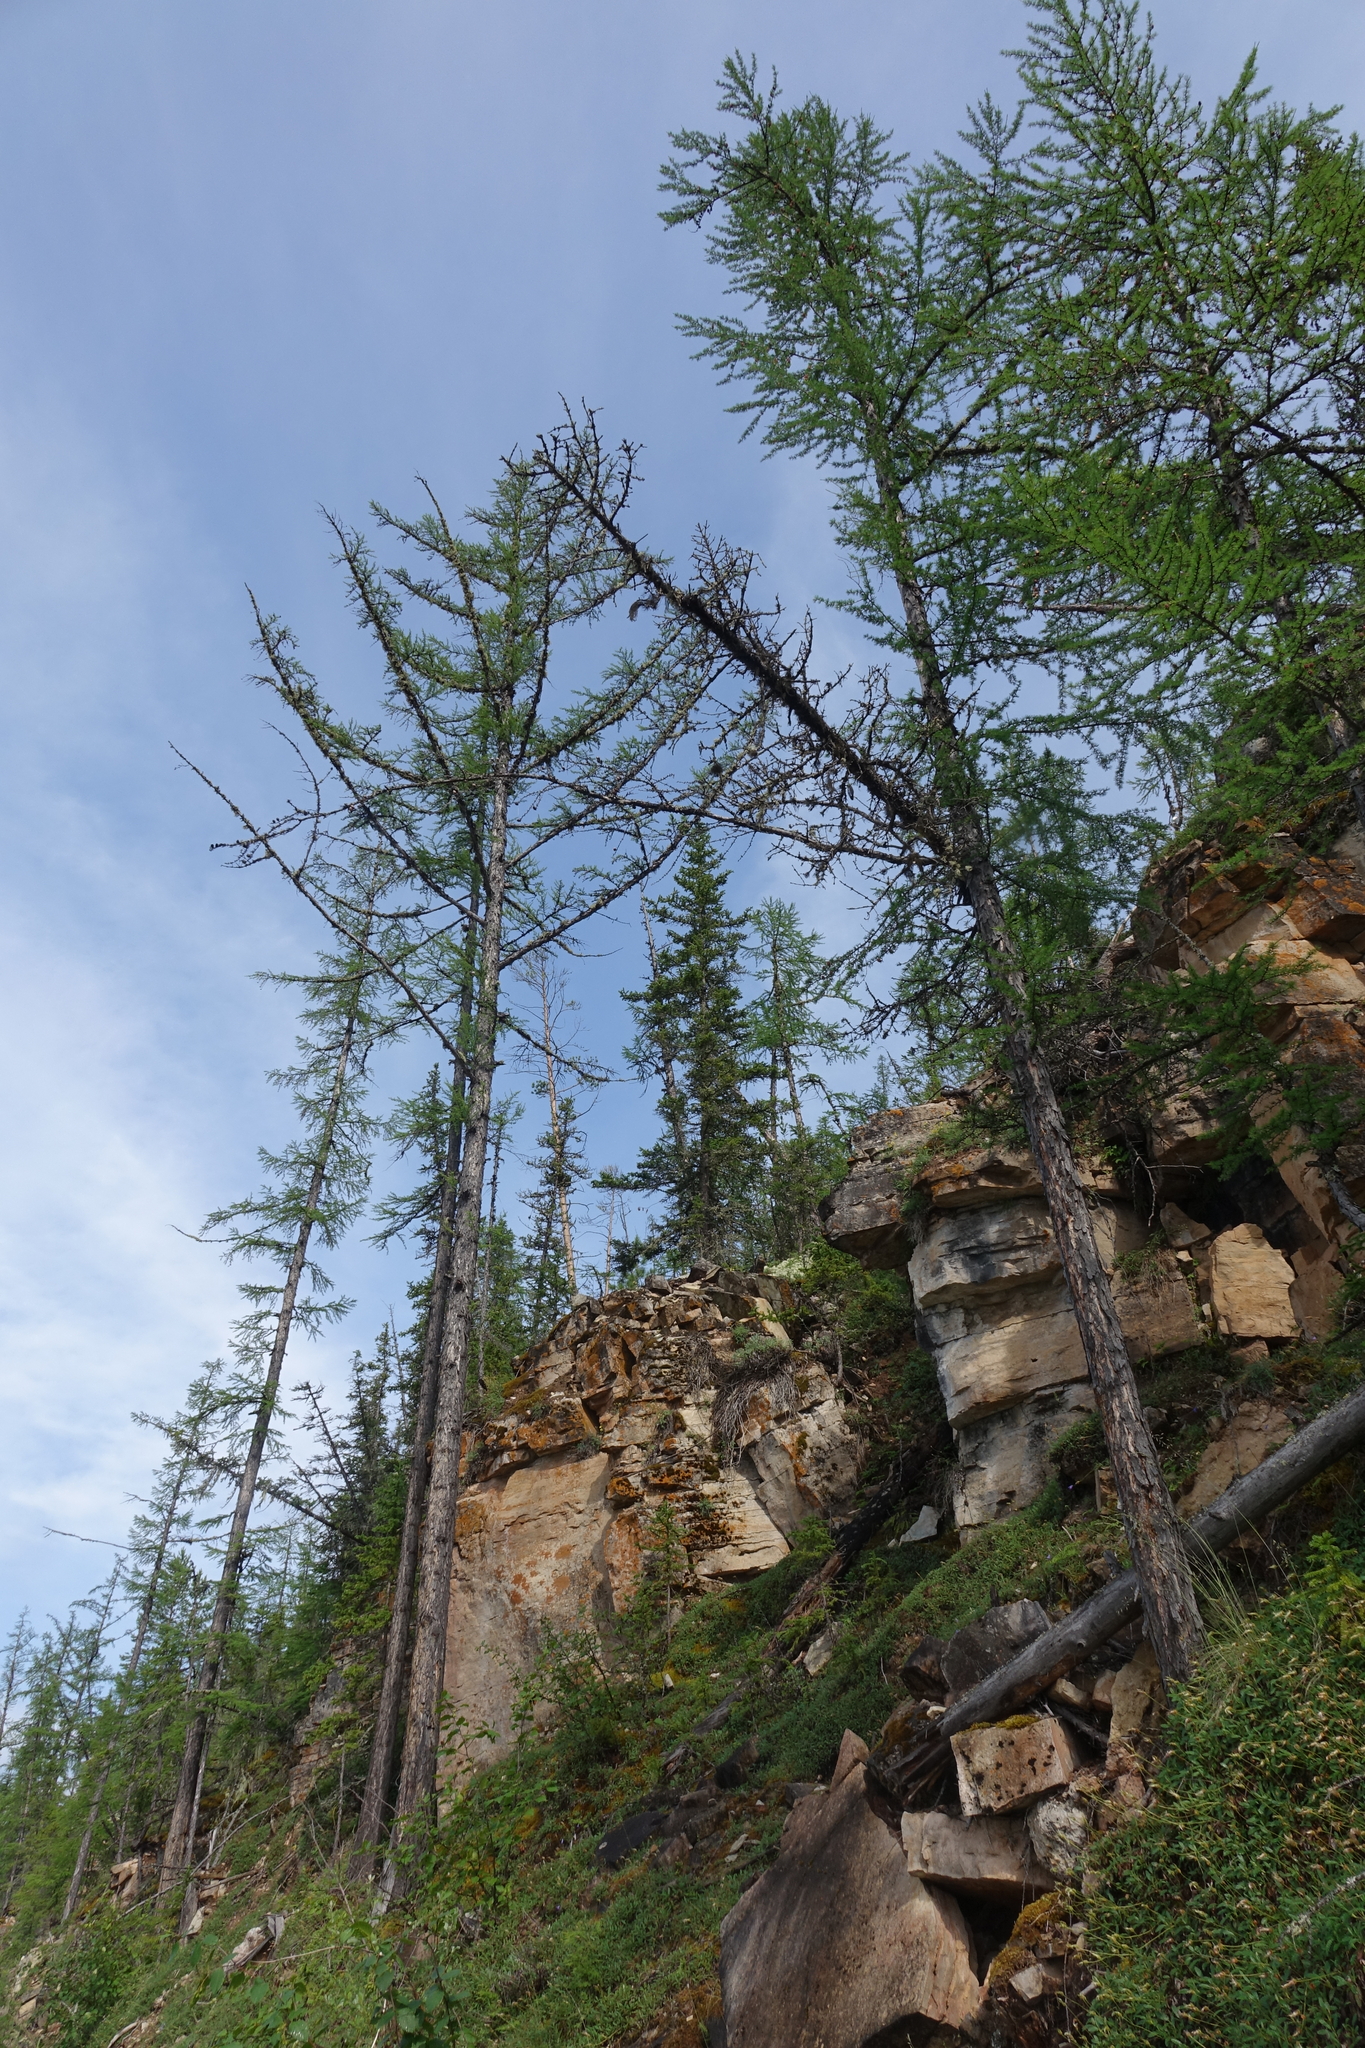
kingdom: Plantae
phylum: Tracheophyta
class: Pinopsida
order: Pinales
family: Pinaceae
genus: Larix
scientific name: Larix gmelinii
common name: Dahurian larch
